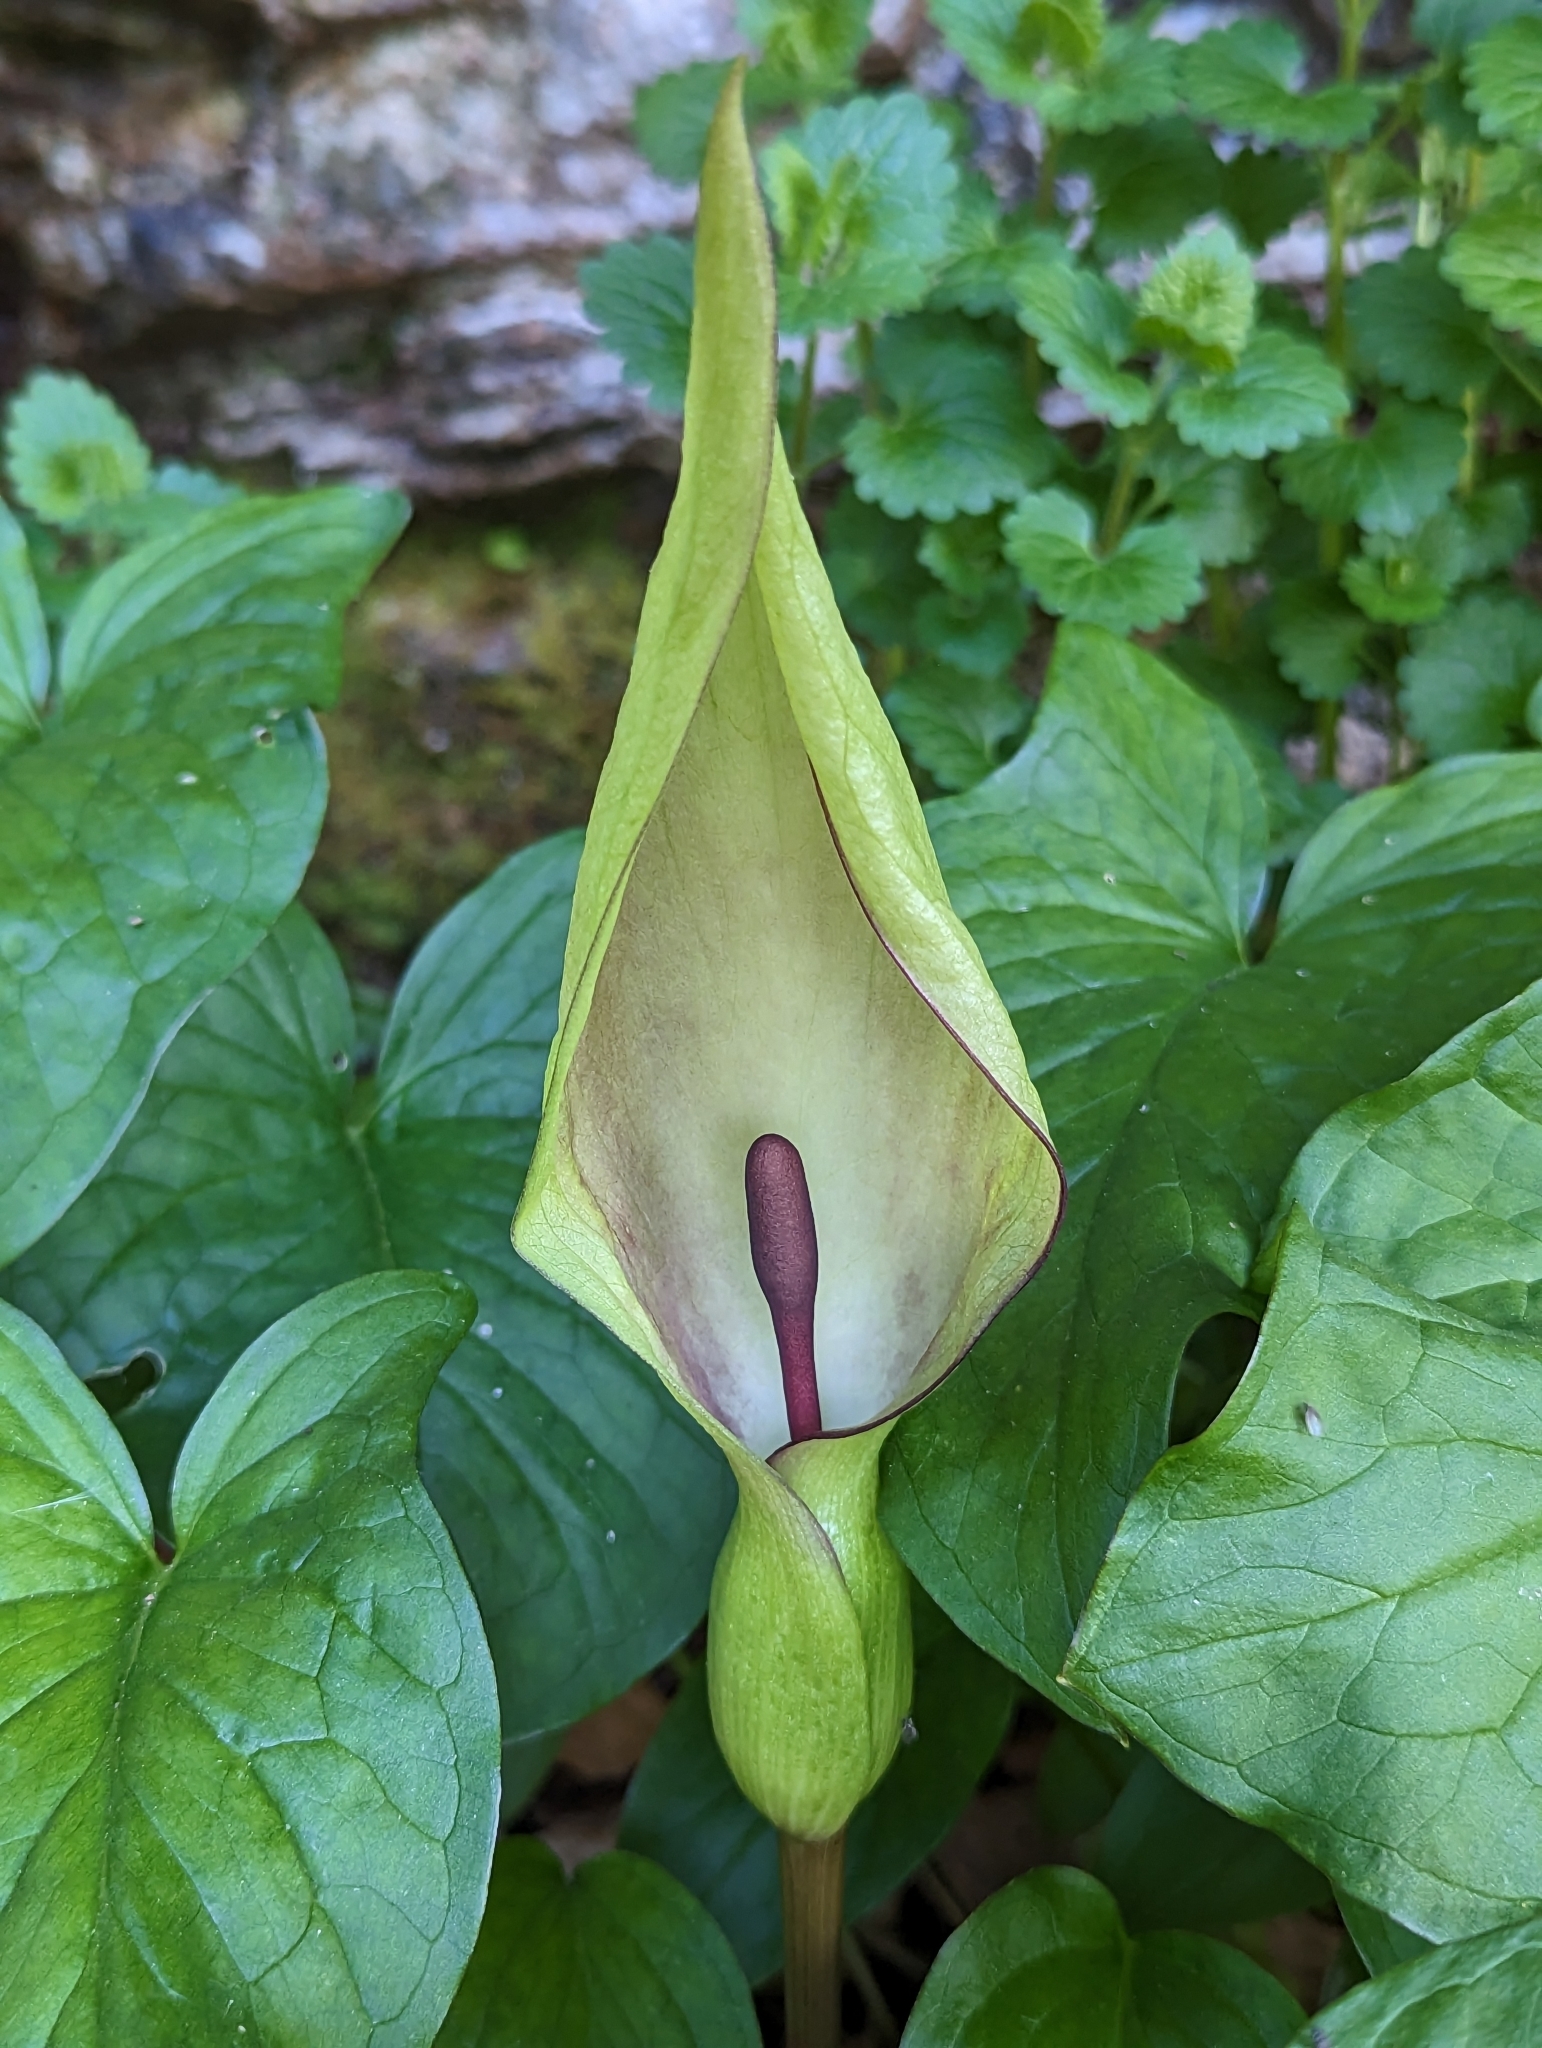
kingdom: Plantae
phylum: Tracheophyta
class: Liliopsida
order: Alismatales
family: Araceae
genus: Arum
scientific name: Arum maculatum
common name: Lords-and-ladies
